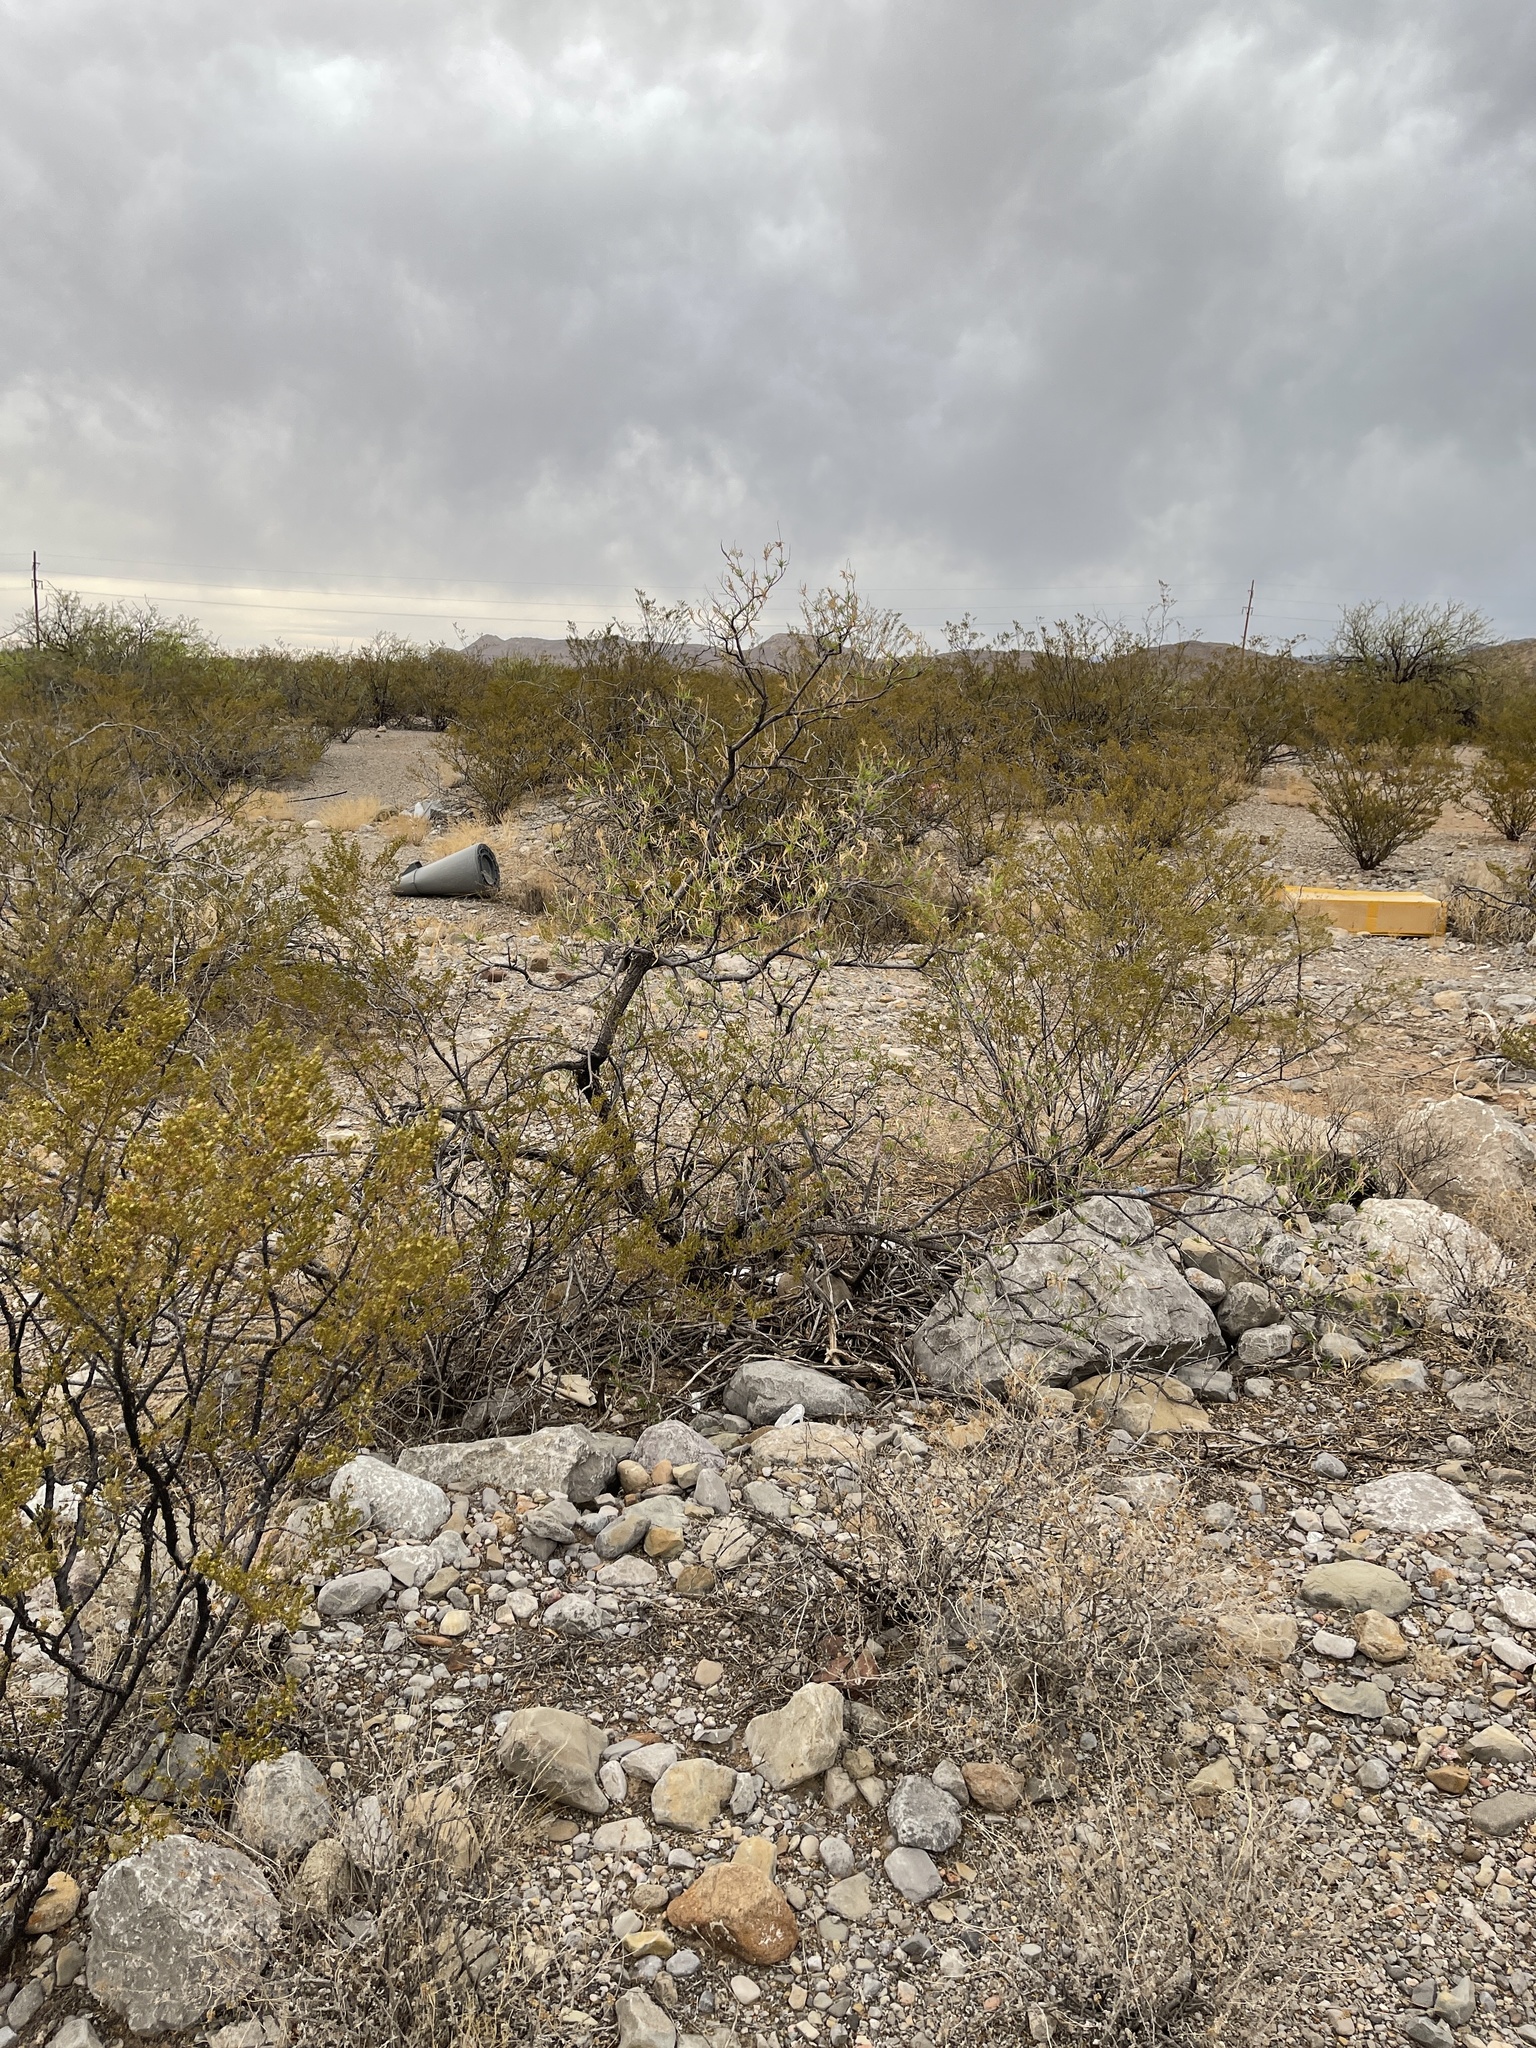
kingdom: Plantae
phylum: Tracheophyta
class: Magnoliopsida
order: Lamiales
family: Bignoniaceae
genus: Chilopsis
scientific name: Chilopsis linearis
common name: Desert-willow
